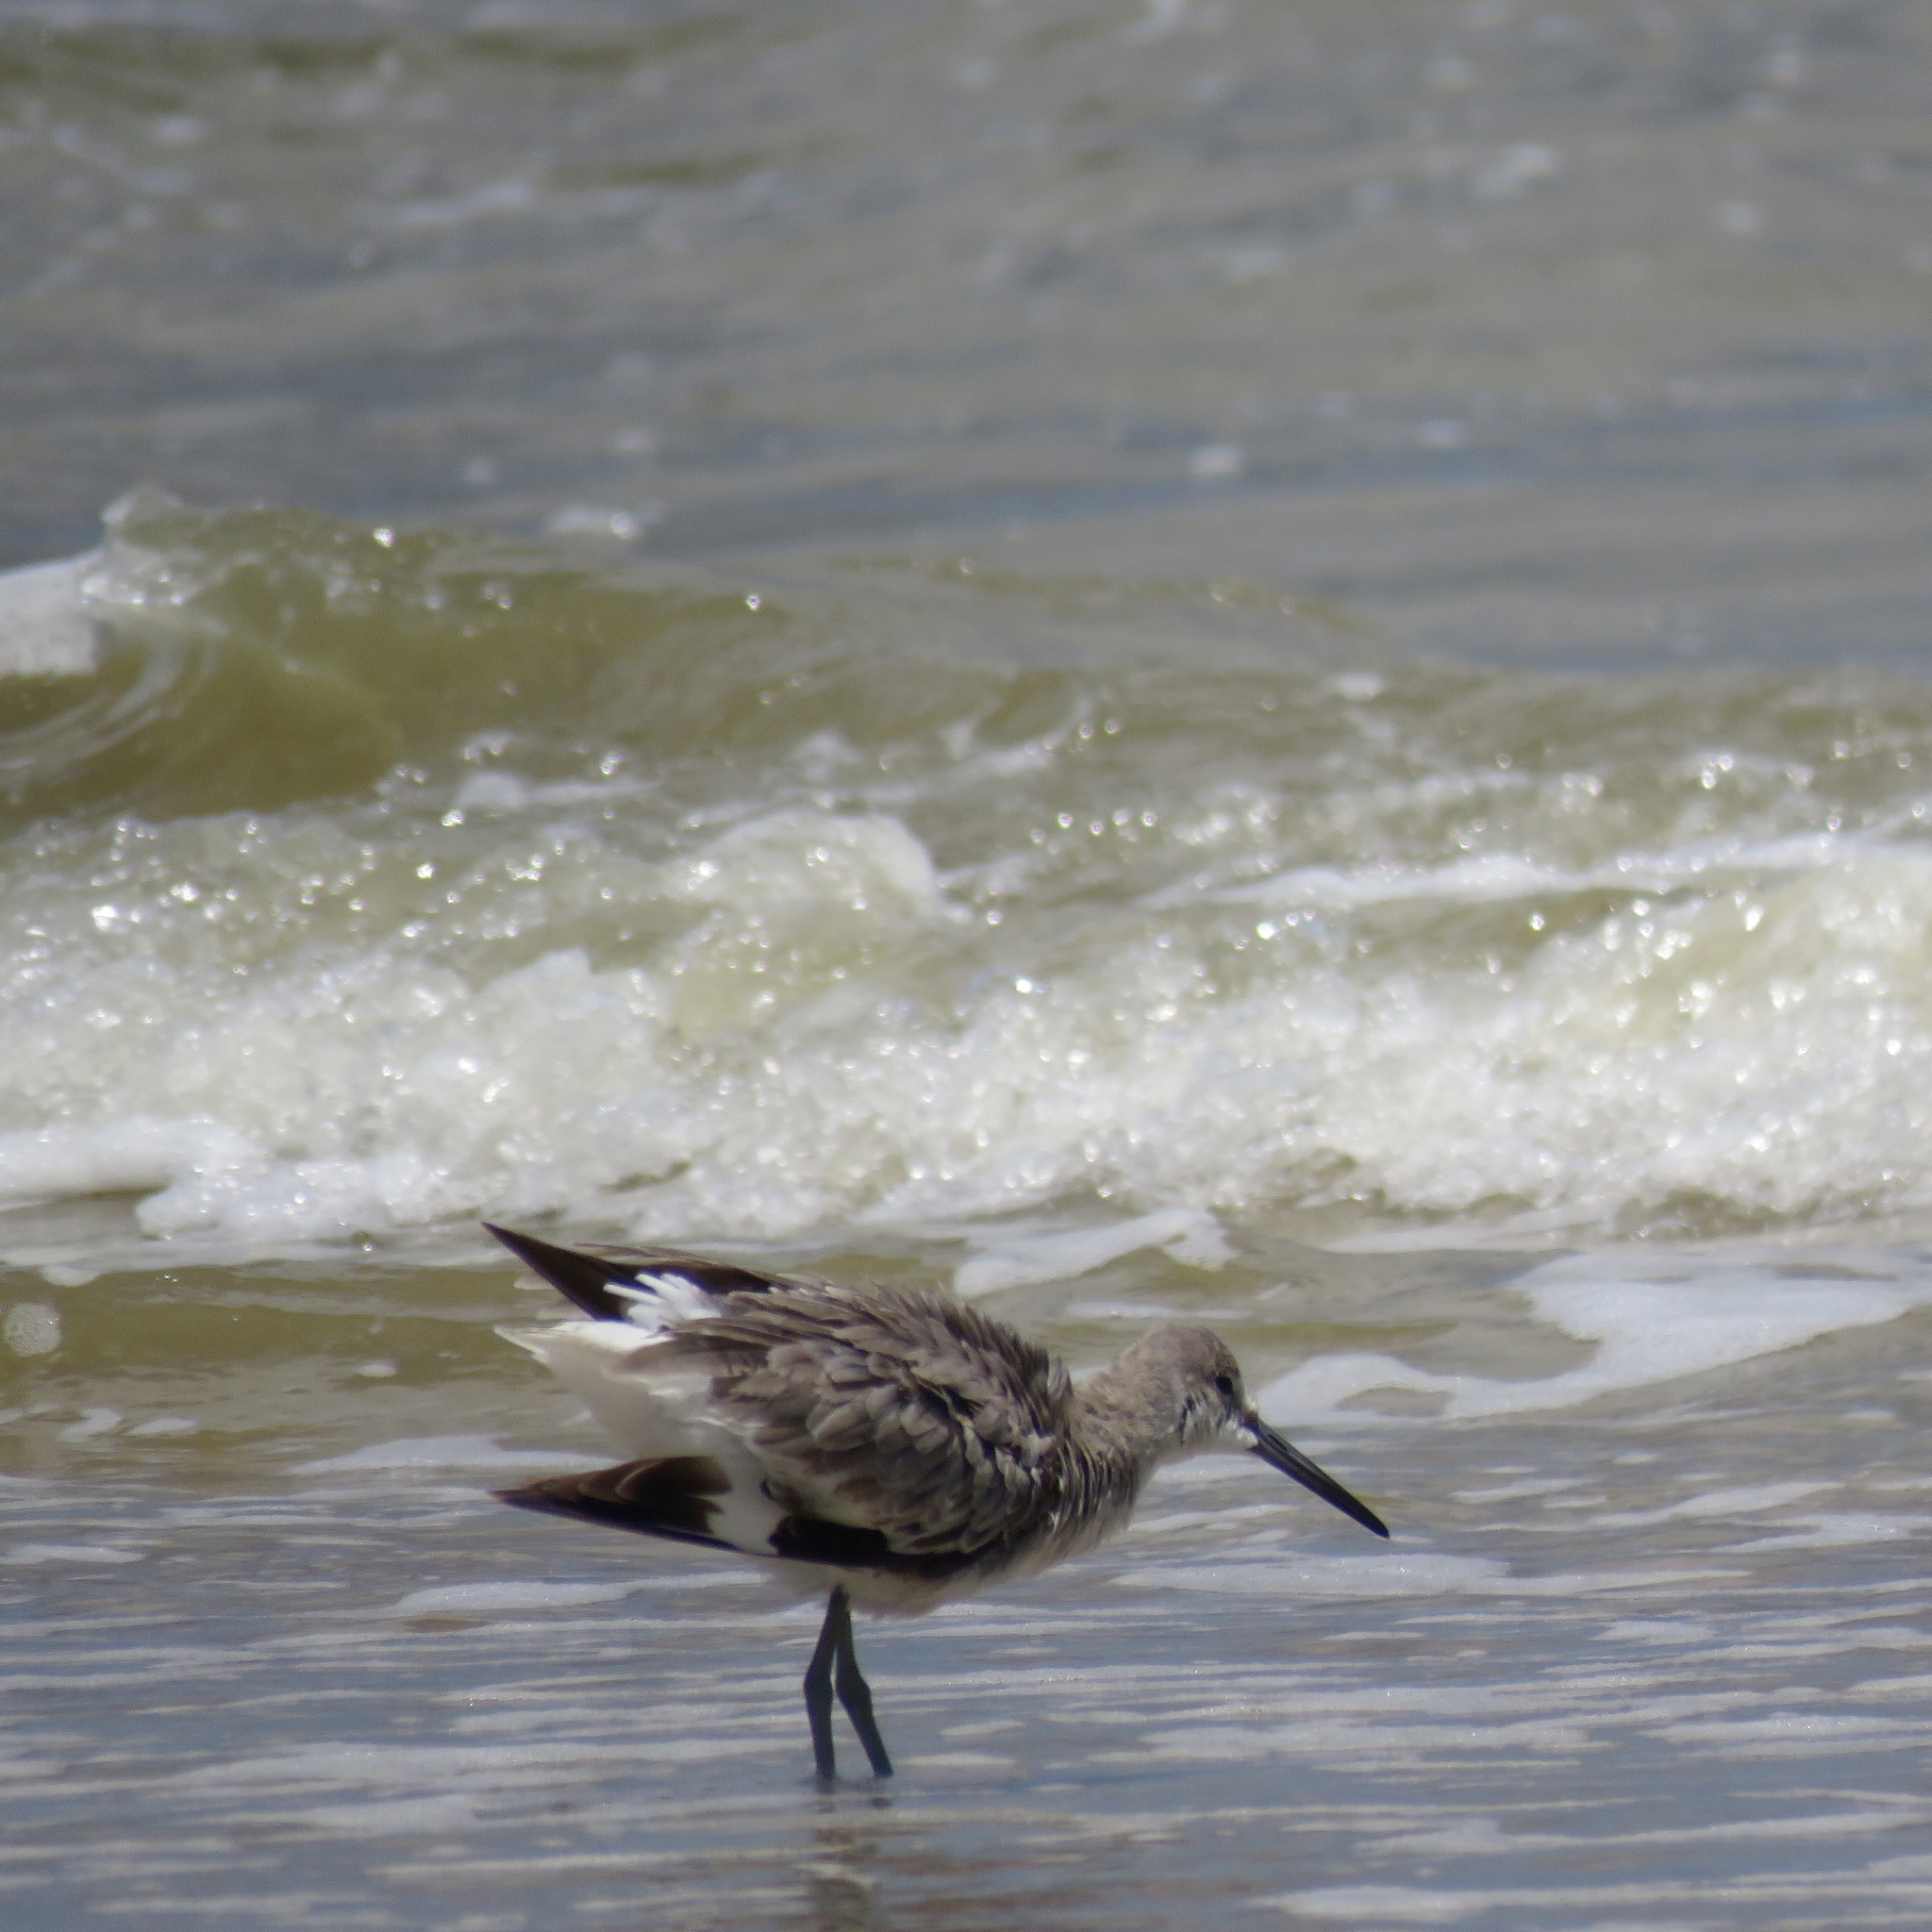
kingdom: Animalia
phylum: Chordata
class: Aves
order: Charadriiformes
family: Scolopacidae
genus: Tringa
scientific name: Tringa semipalmata
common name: Willet
